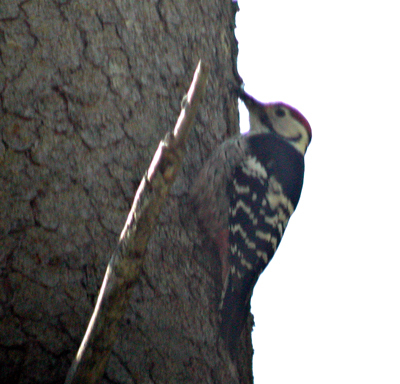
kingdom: Animalia
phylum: Chordata
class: Aves
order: Piciformes
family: Picidae
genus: Dendrocopos
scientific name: Dendrocopos leucotos
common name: White-backed woodpecker
